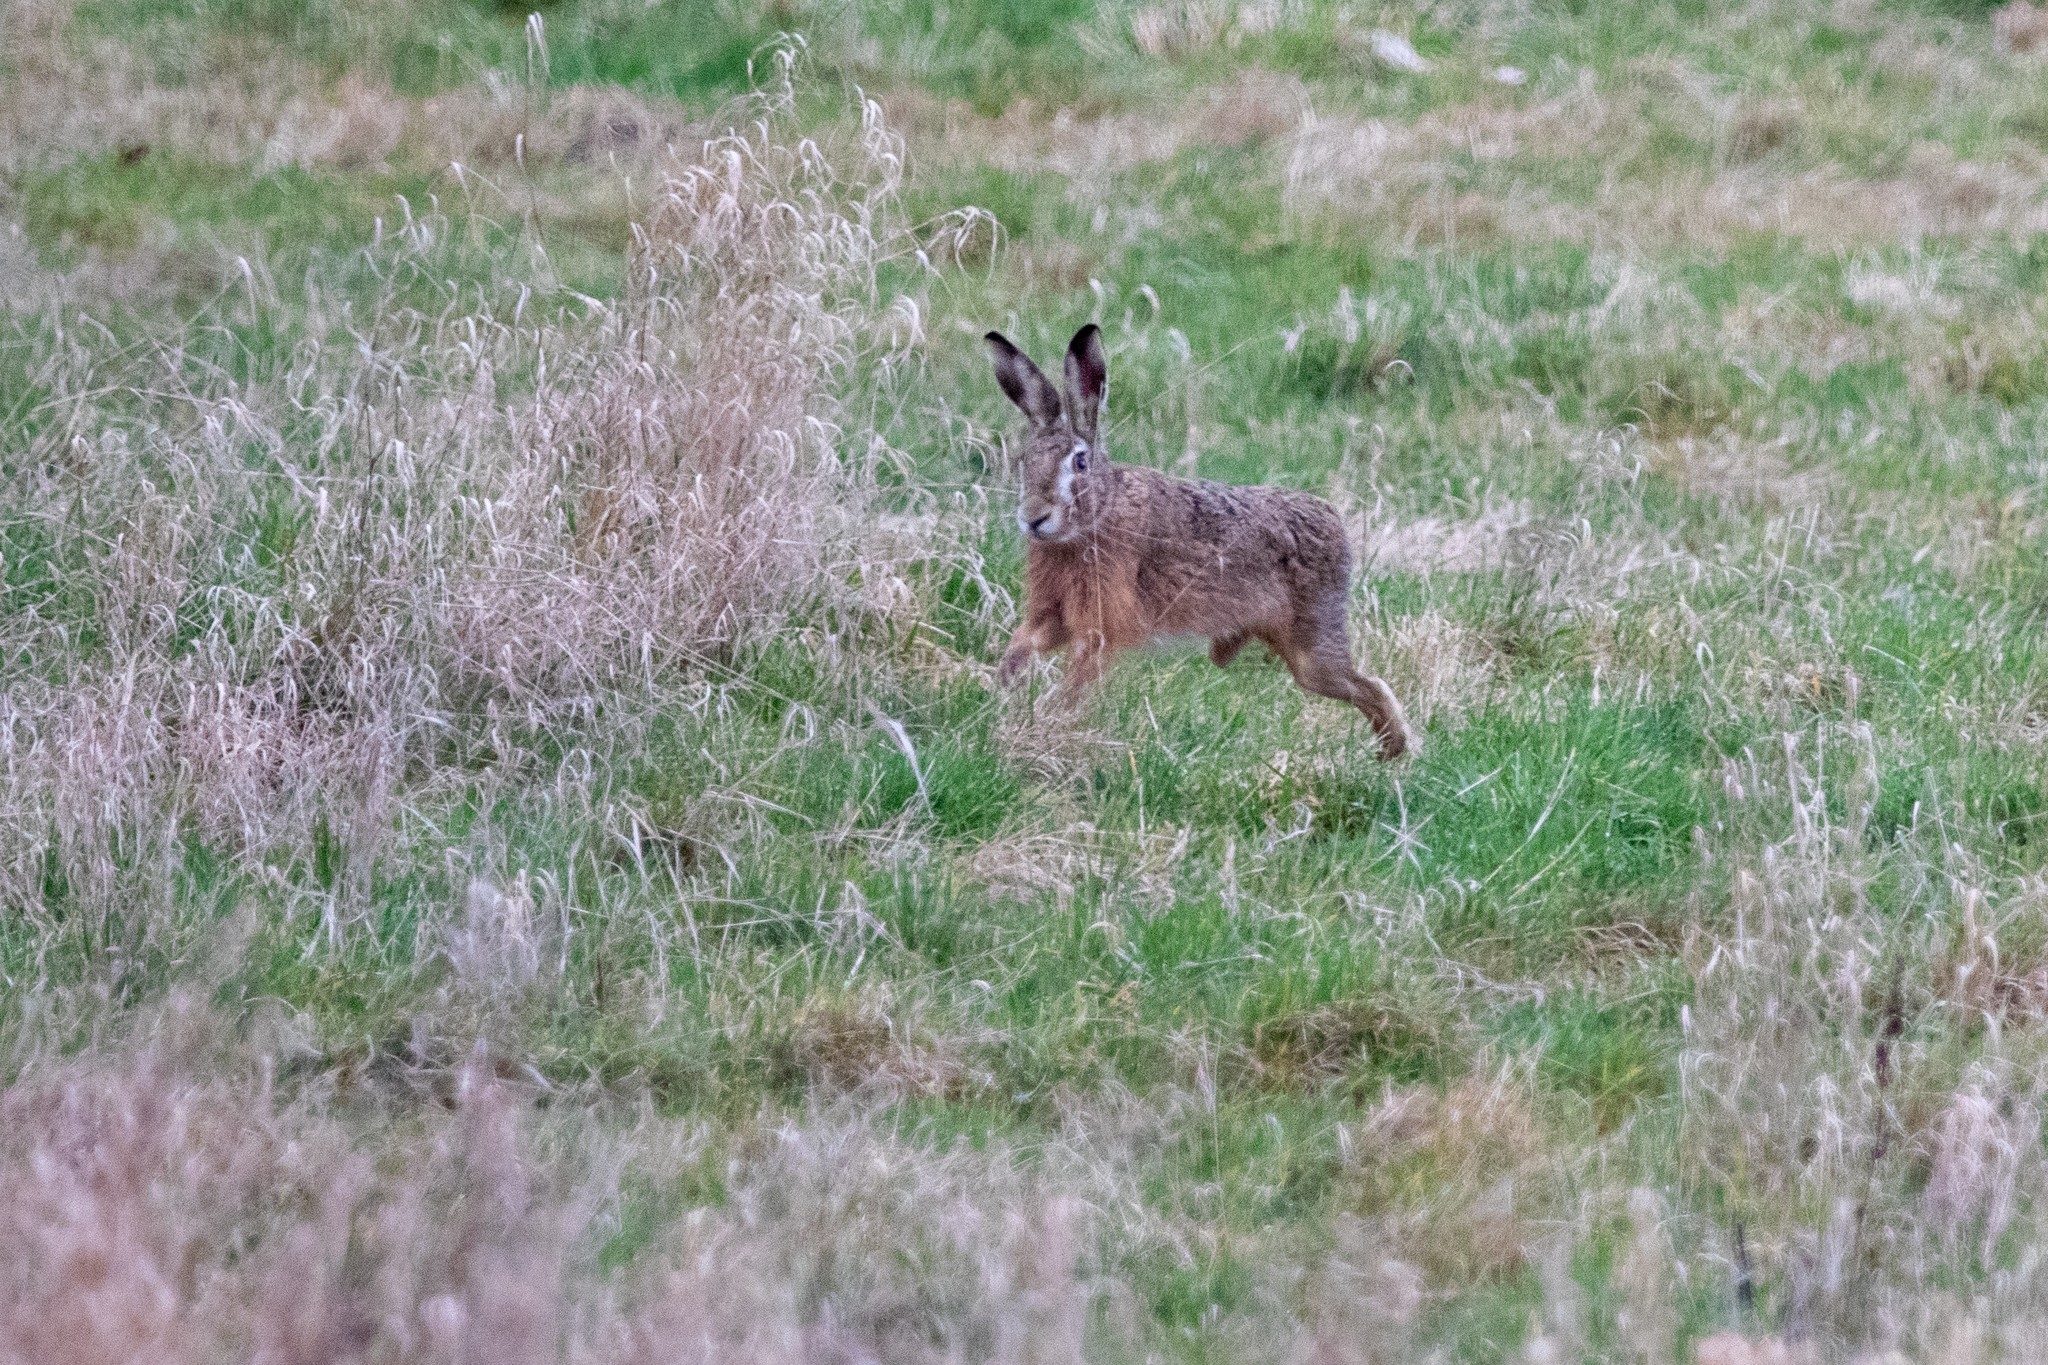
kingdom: Animalia
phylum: Chordata
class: Mammalia
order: Lagomorpha
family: Leporidae
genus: Lepus
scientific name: Lepus europaeus
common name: European hare
